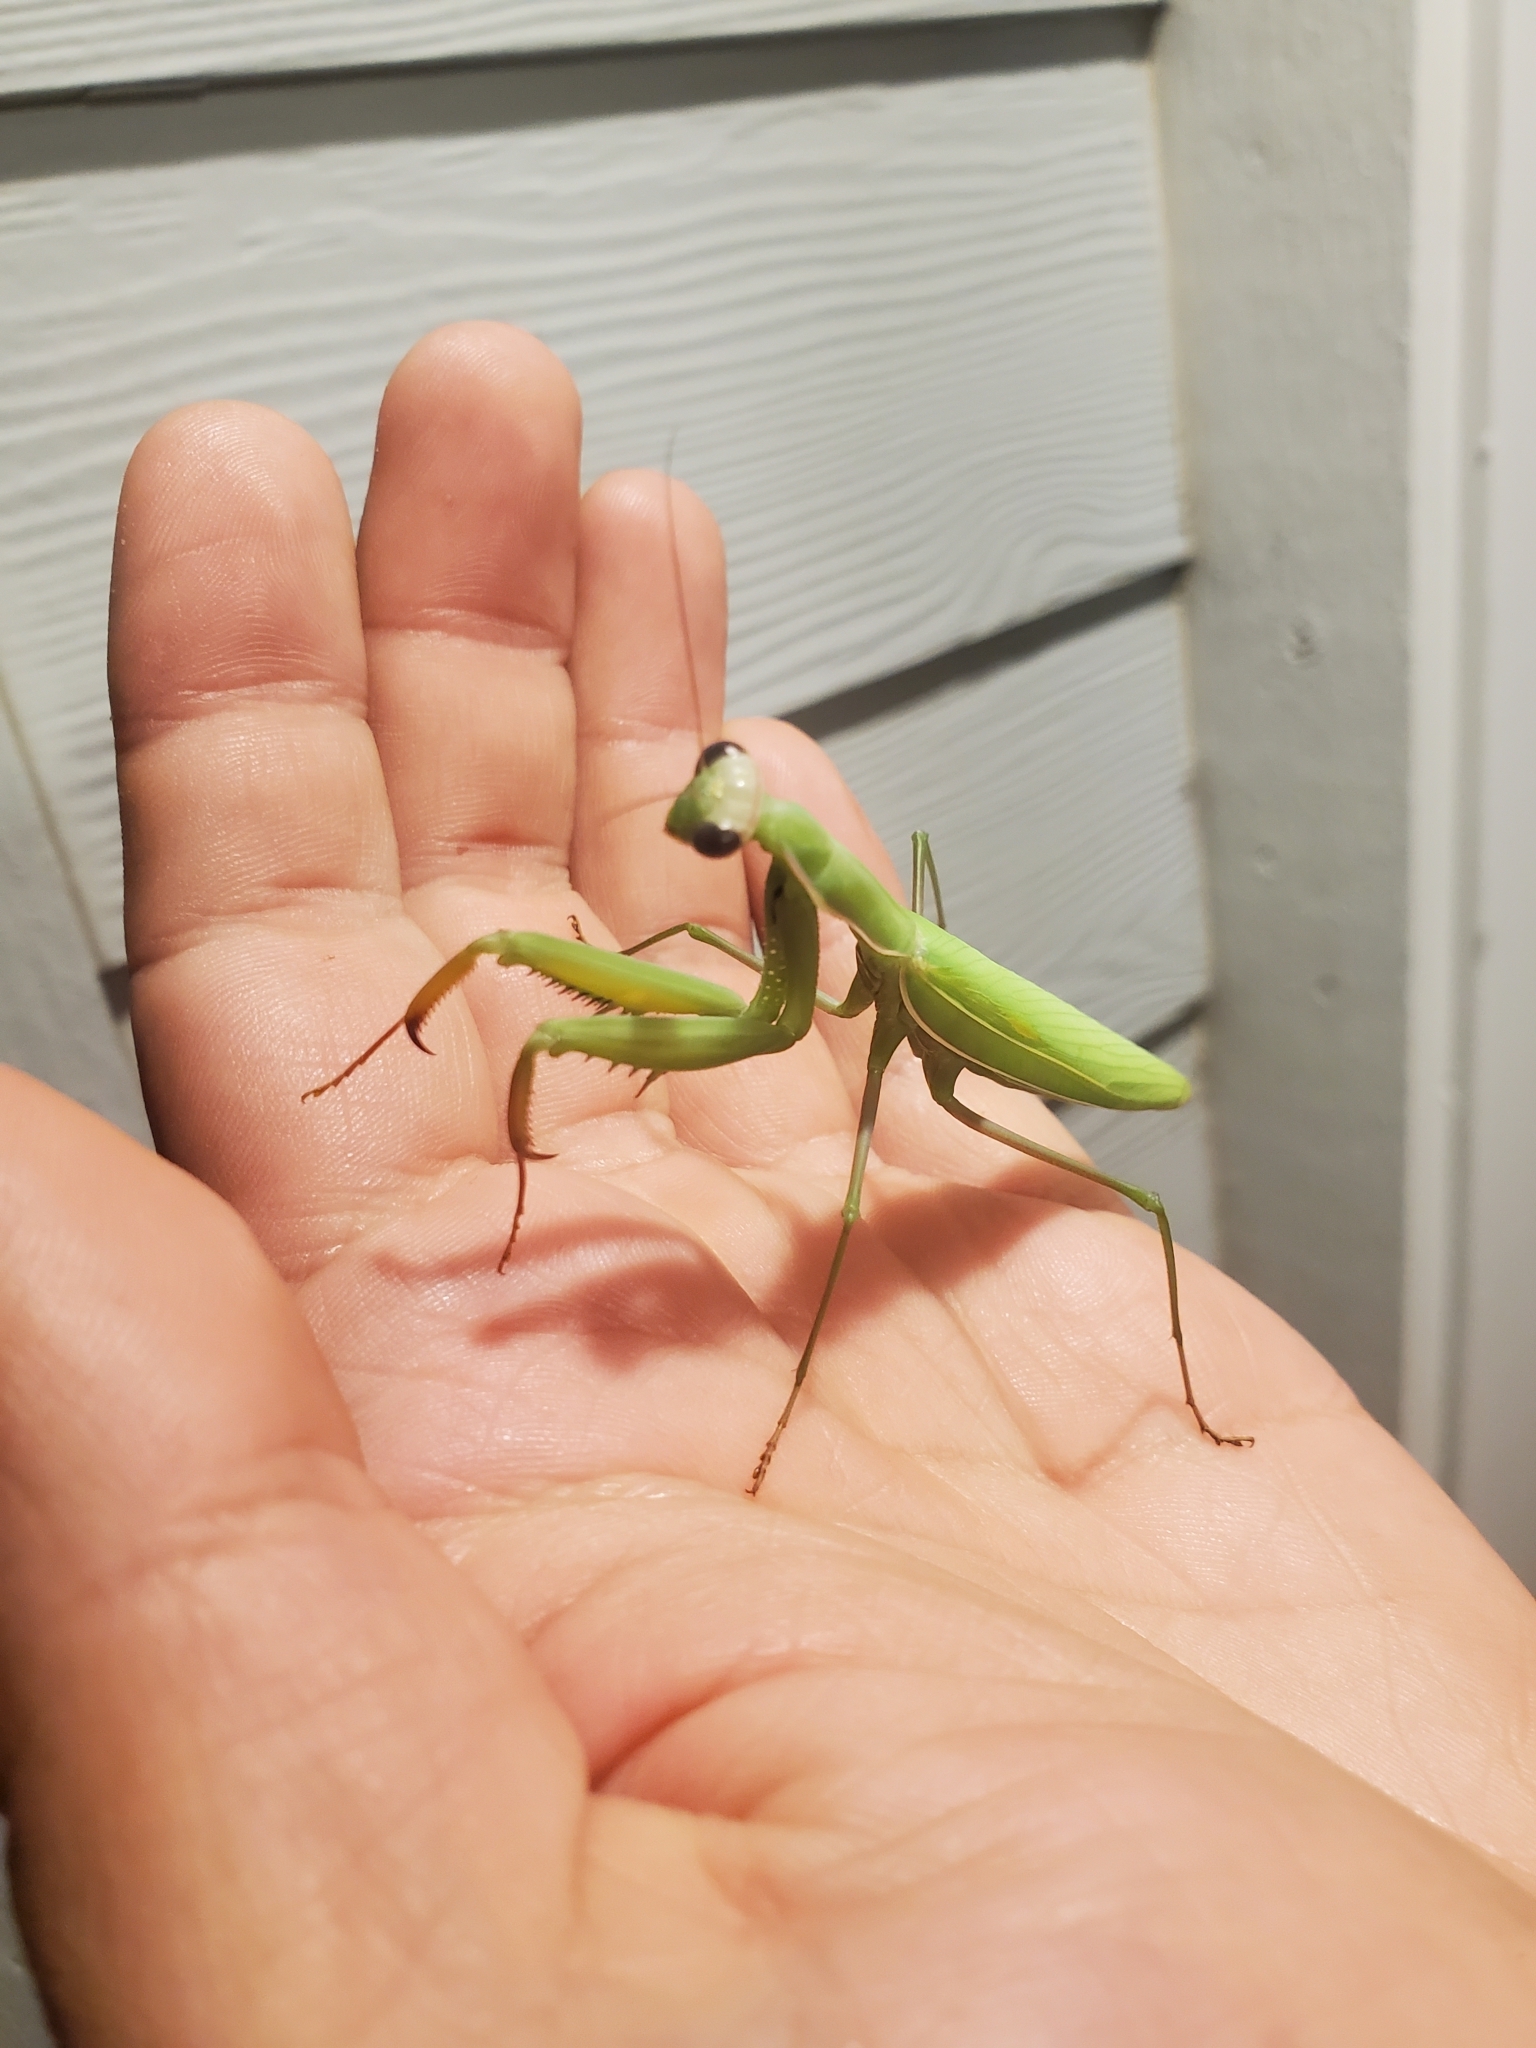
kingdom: Animalia
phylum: Arthropoda
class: Insecta
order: Mantodea
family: Mantidae
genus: Mantis
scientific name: Mantis religiosa
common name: Praying mantis
